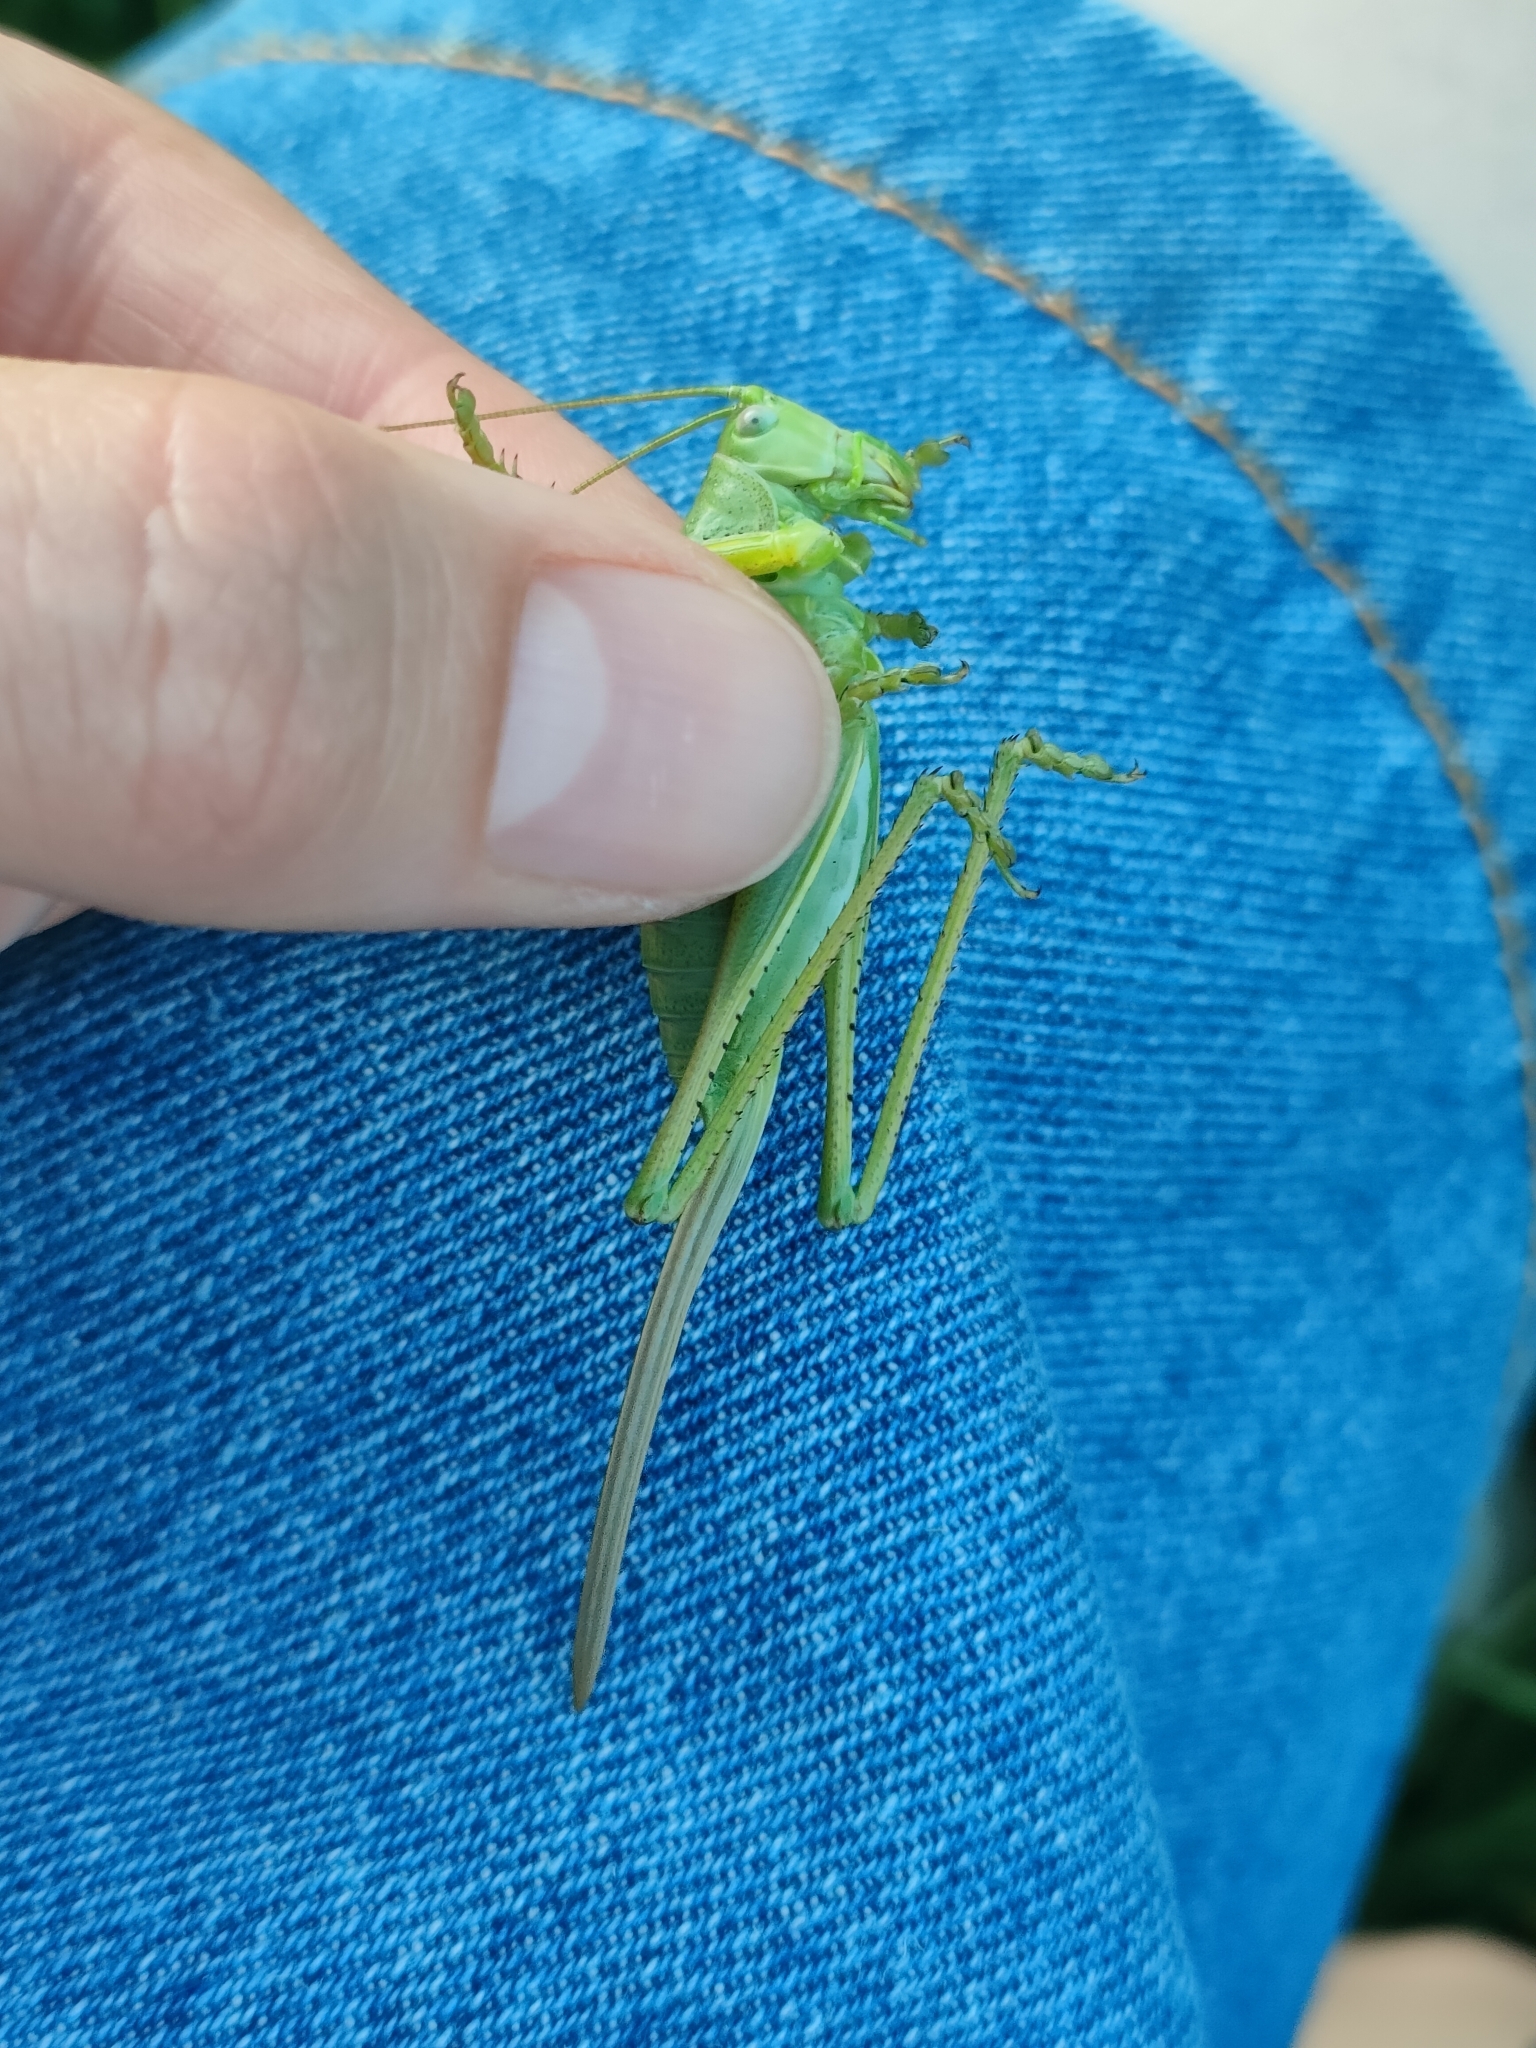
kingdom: Animalia
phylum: Arthropoda
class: Insecta
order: Orthoptera
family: Tettigoniidae
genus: Tettigonia
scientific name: Tettigonia caudata
